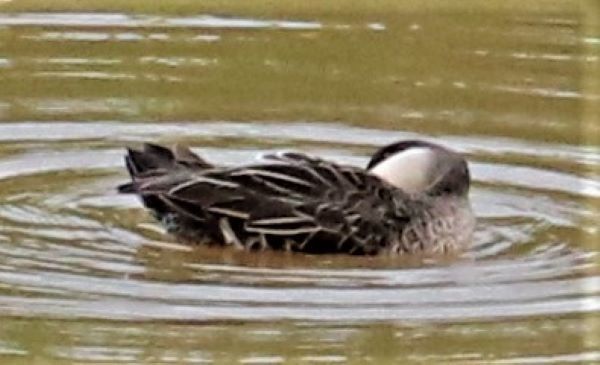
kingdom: Animalia
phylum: Chordata
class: Aves
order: Anseriformes
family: Anatidae
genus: Anas
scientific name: Anas erythrorhyncha
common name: Red-billed teal
